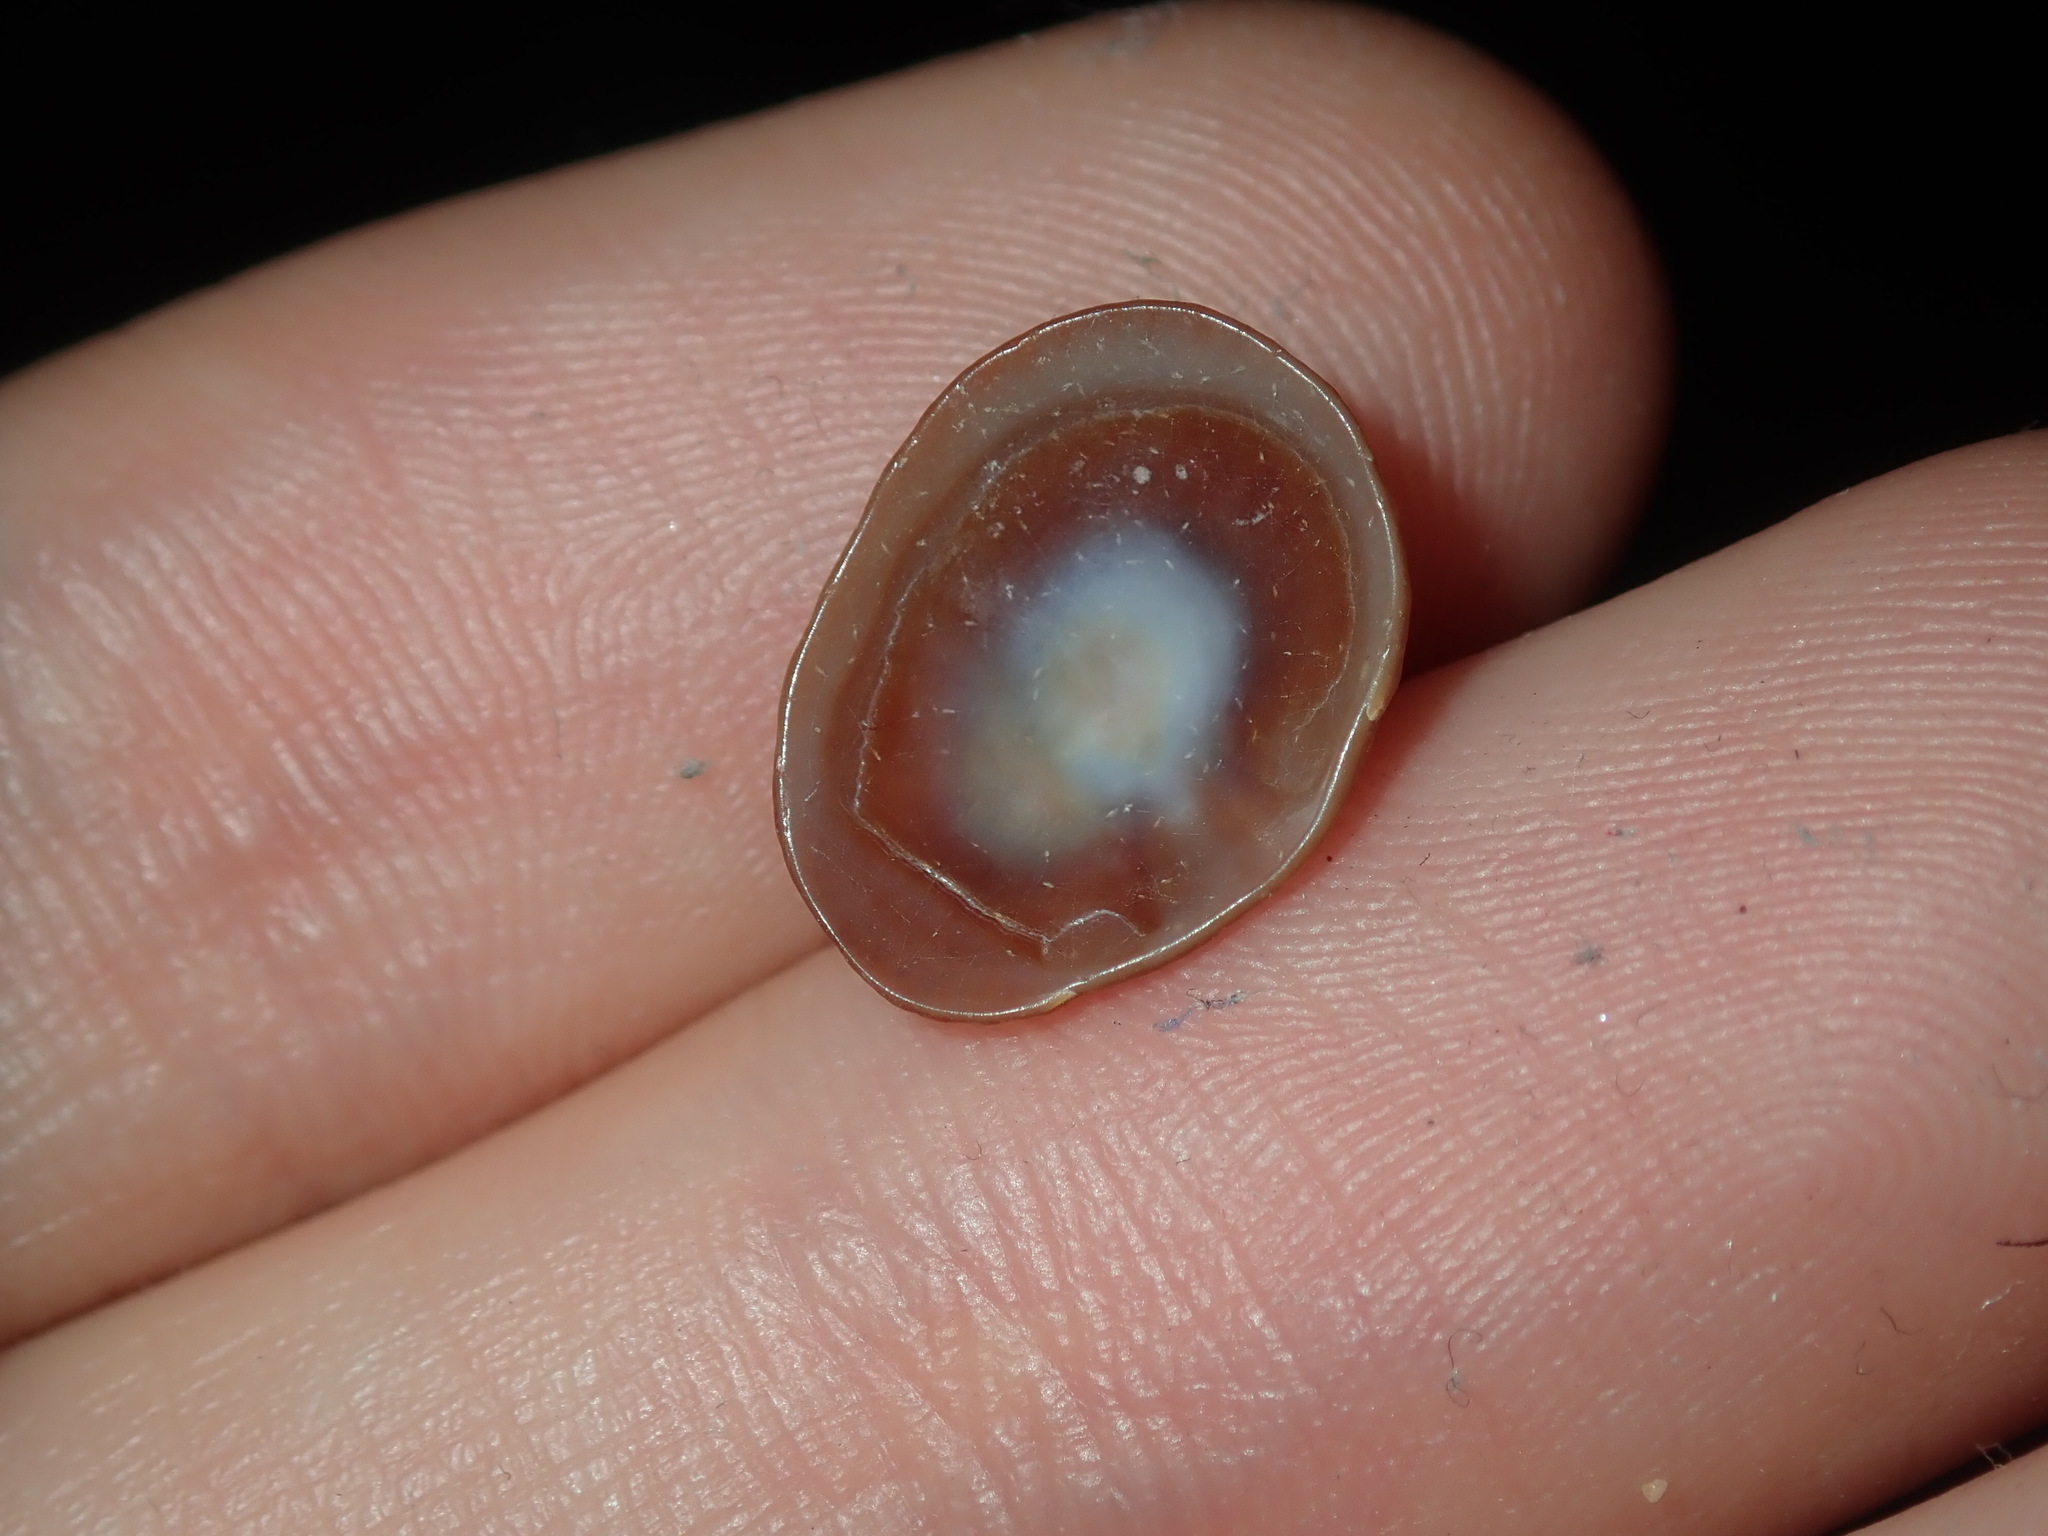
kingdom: Animalia
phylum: Mollusca
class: Gastropoda
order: Siphonariida
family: Siphonariidae
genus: Siphonaria
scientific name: Siphonaria funiculata
